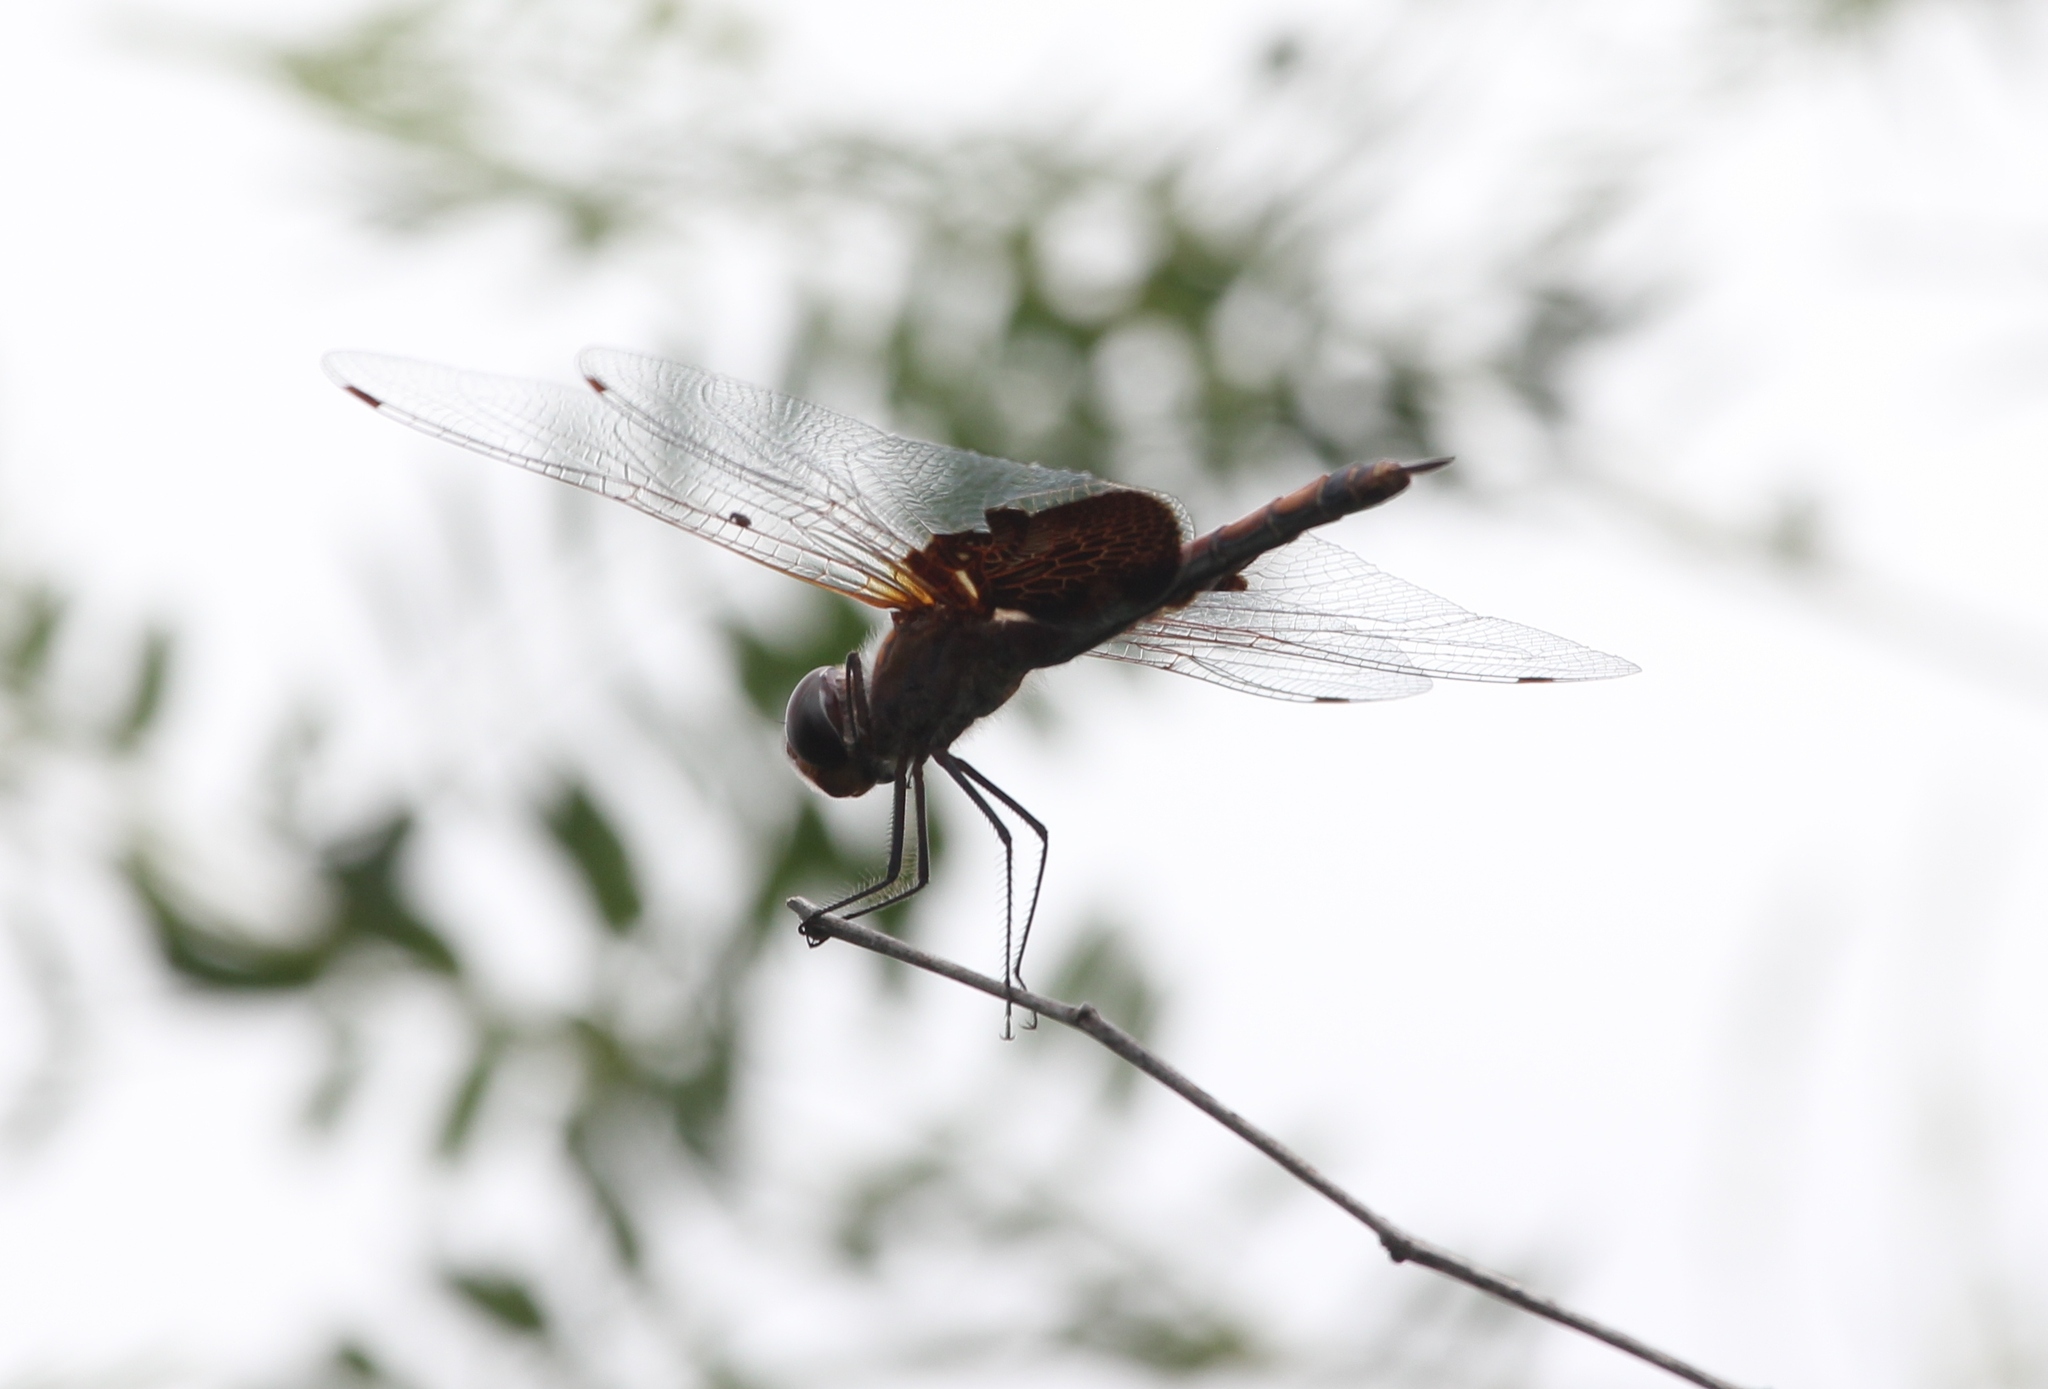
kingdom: Animalia
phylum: Arthropoda
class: Insecta
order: Odonata
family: Libellulidae
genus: Tramea
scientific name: Tramea lacerata
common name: Black saddlebags
